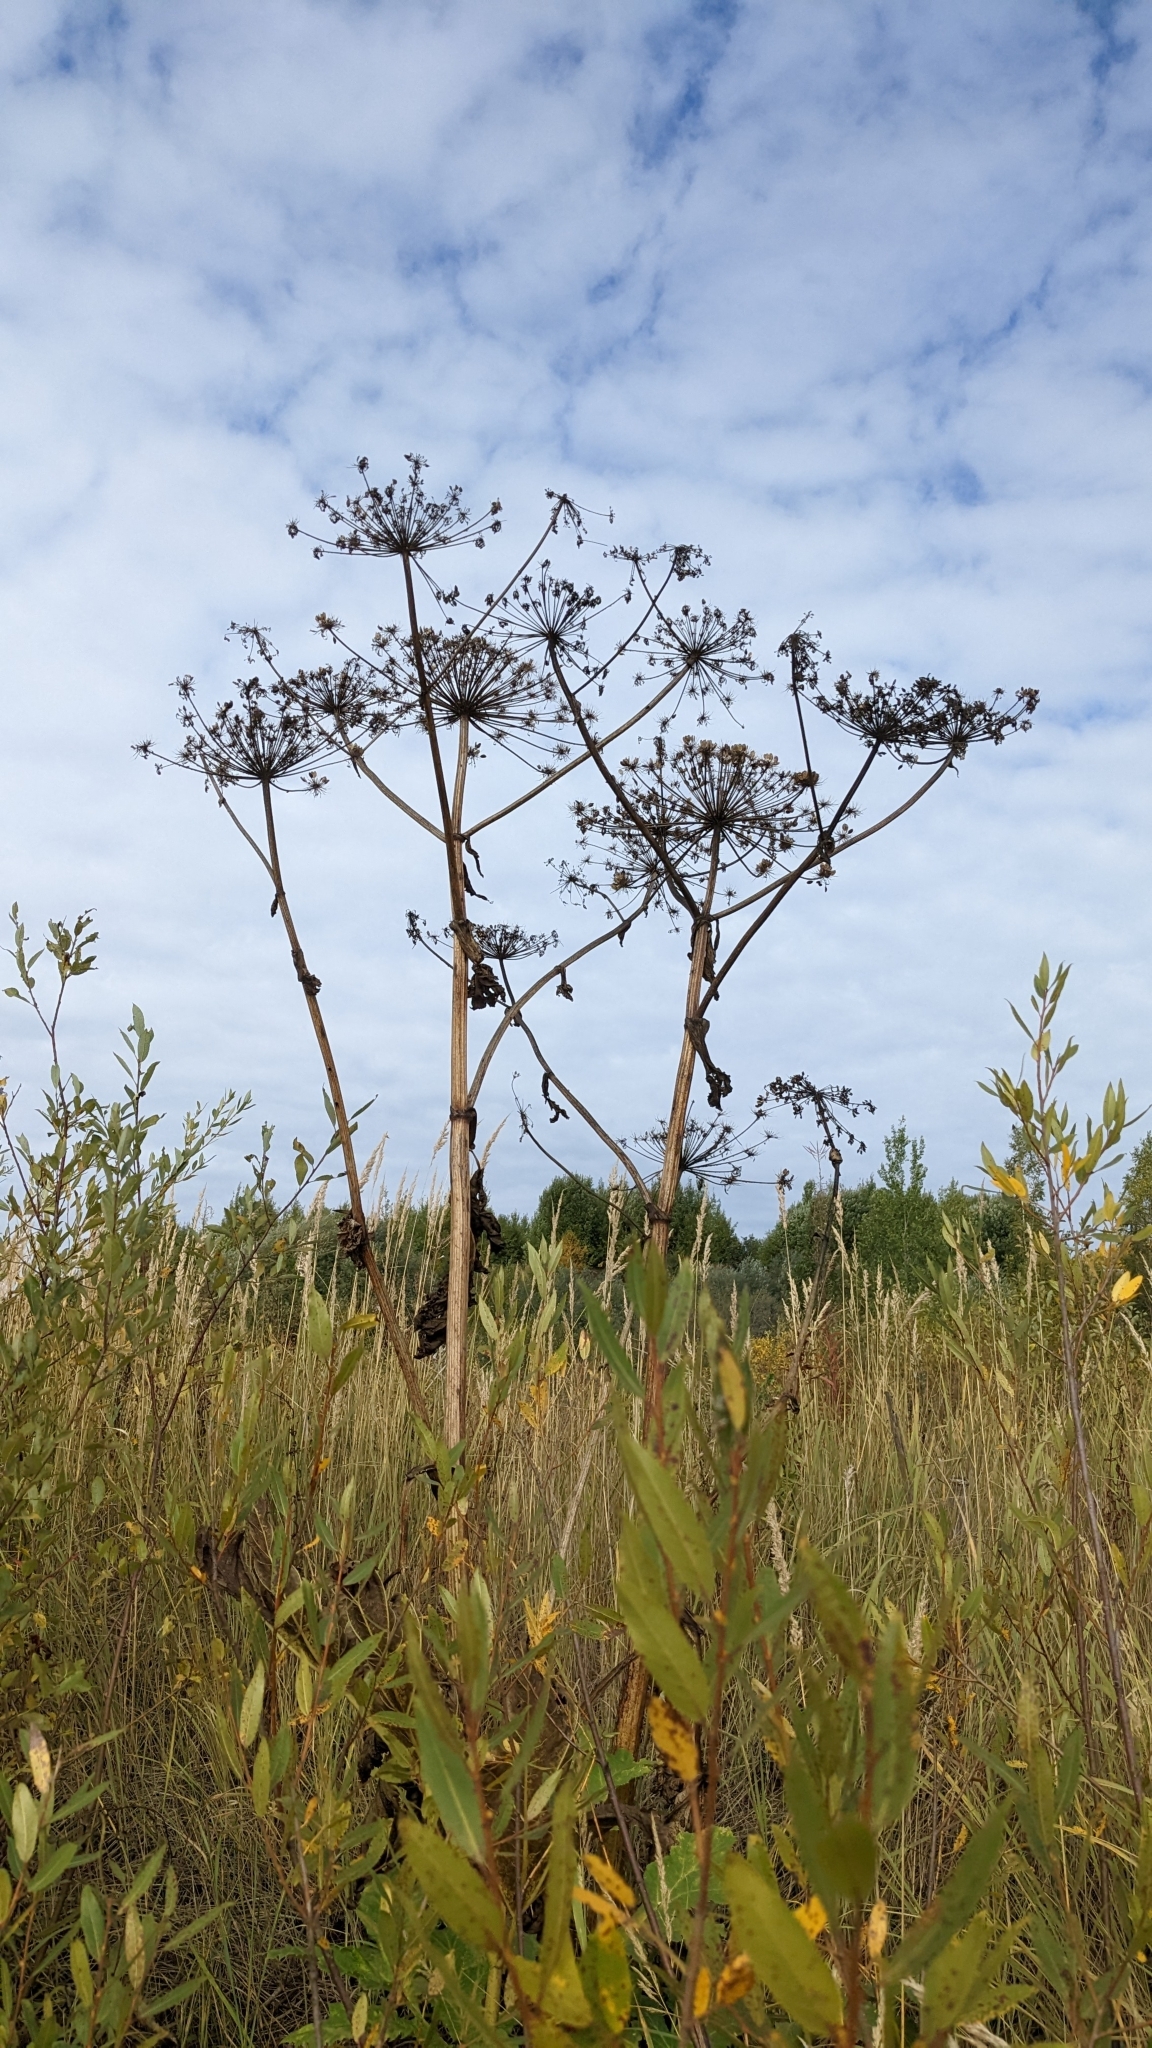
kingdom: Plantae
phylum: Tracheophyta
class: Magnoliopsida
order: Apiales
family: Apiaceae
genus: Heracleum
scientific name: Heracleum sosnowskyi
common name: Sosnowsky's hogweed
